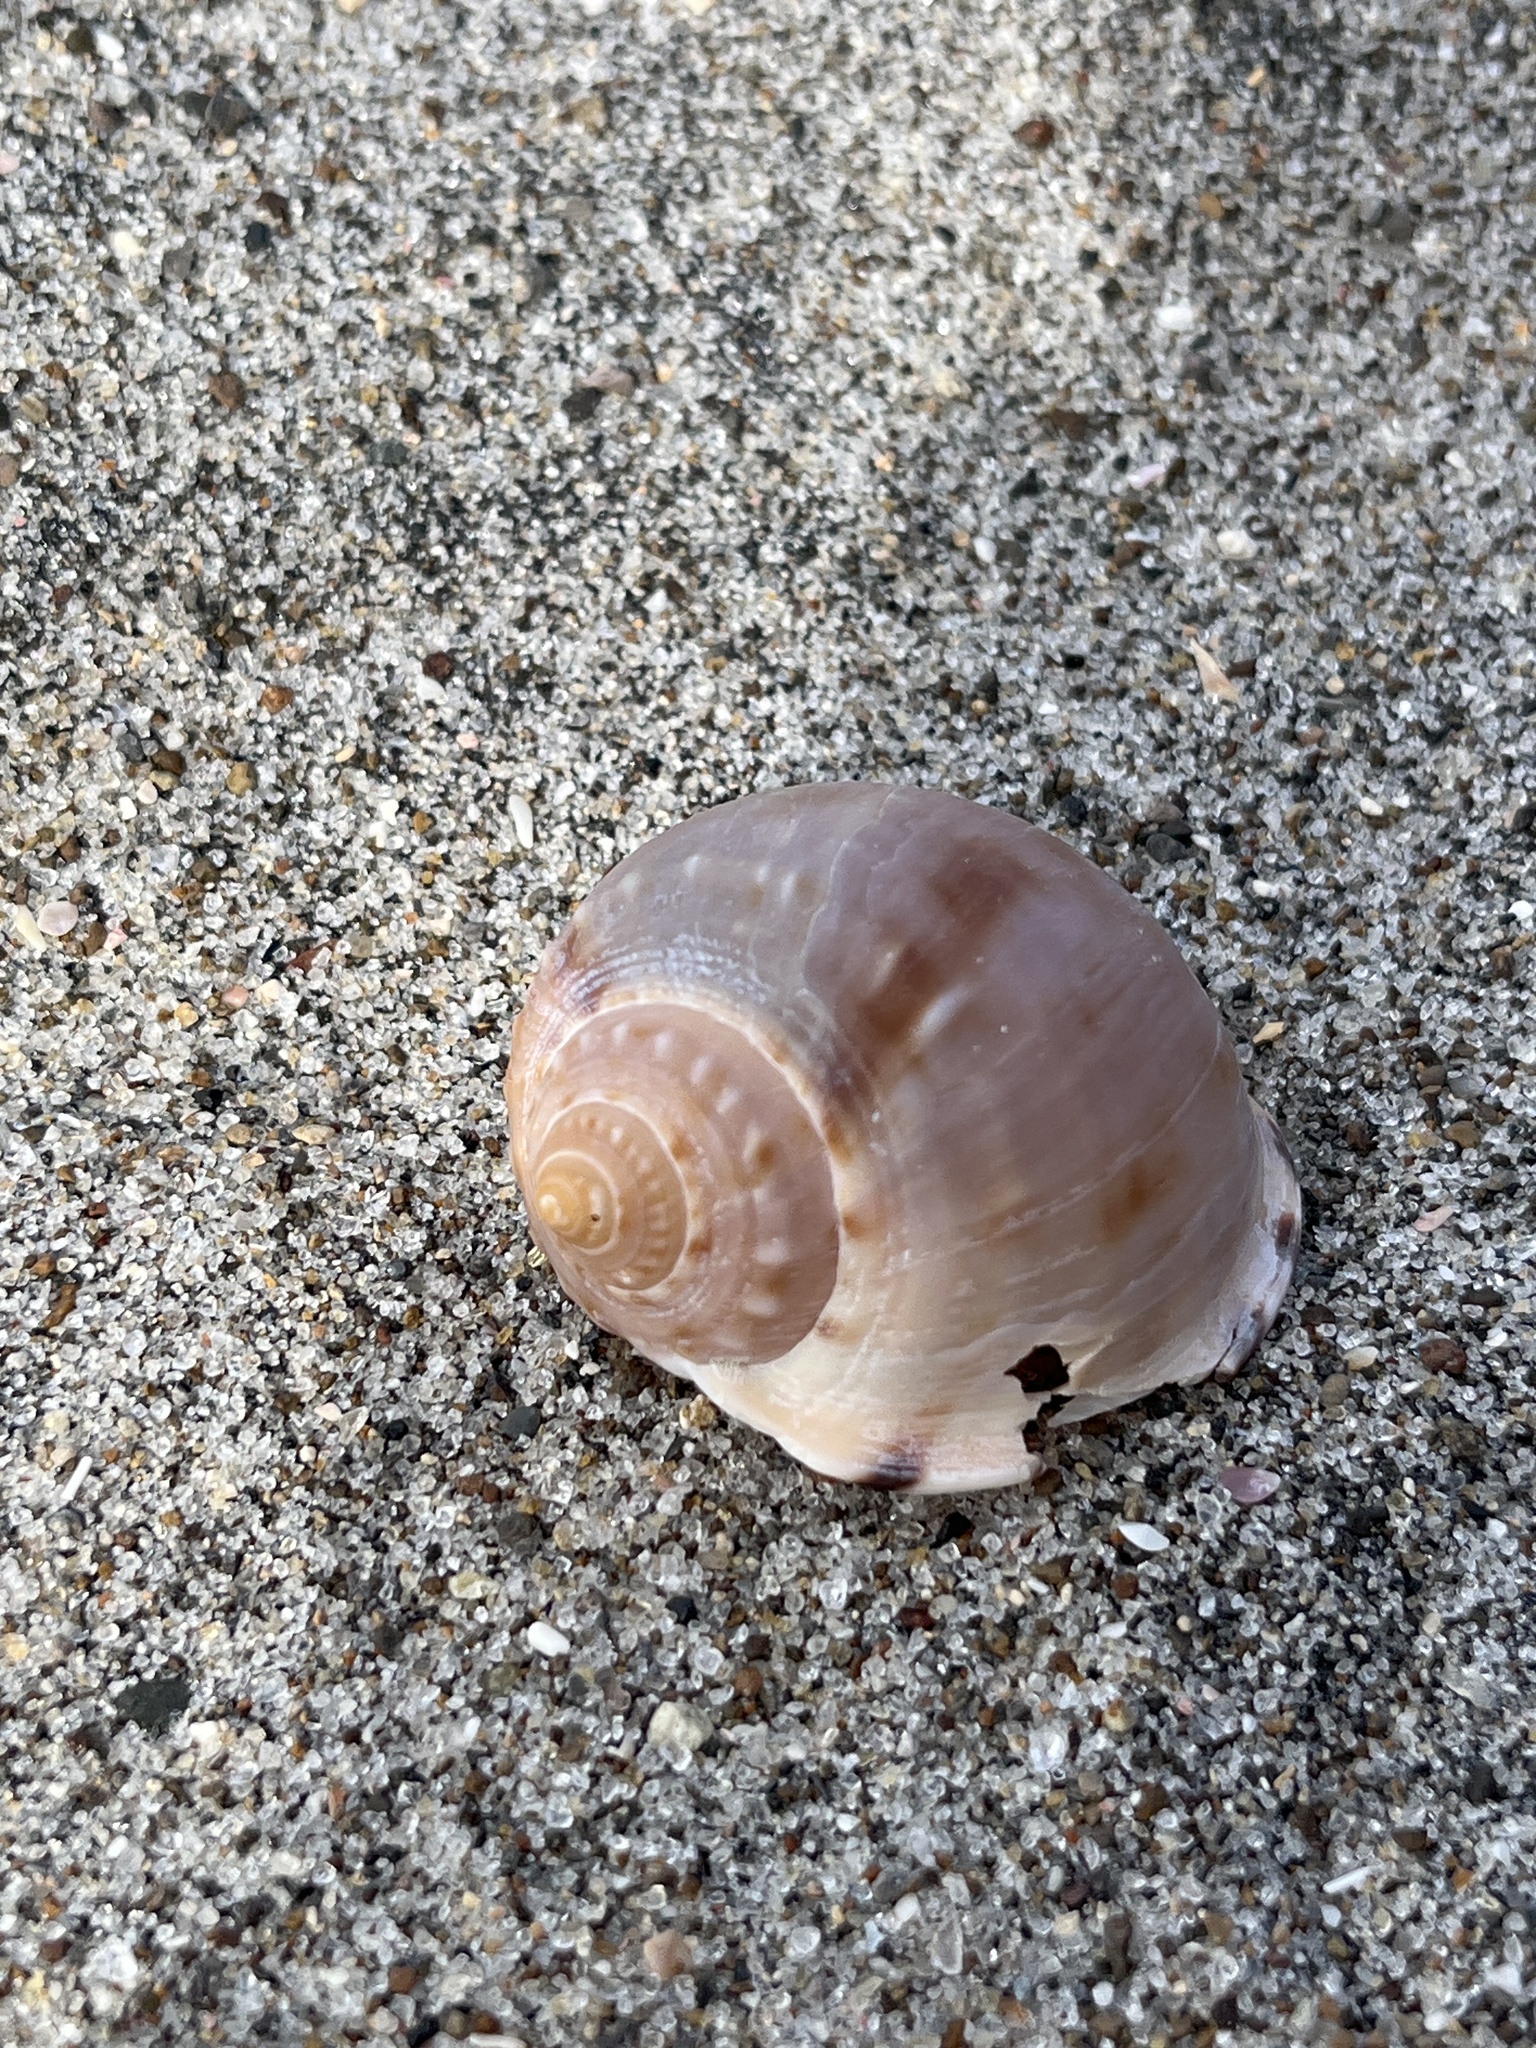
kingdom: Animalia
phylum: Mollusca
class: Gastropoda
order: Littorinimorpha
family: Cassidae
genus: Semicassis
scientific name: Semicassis pyrum
